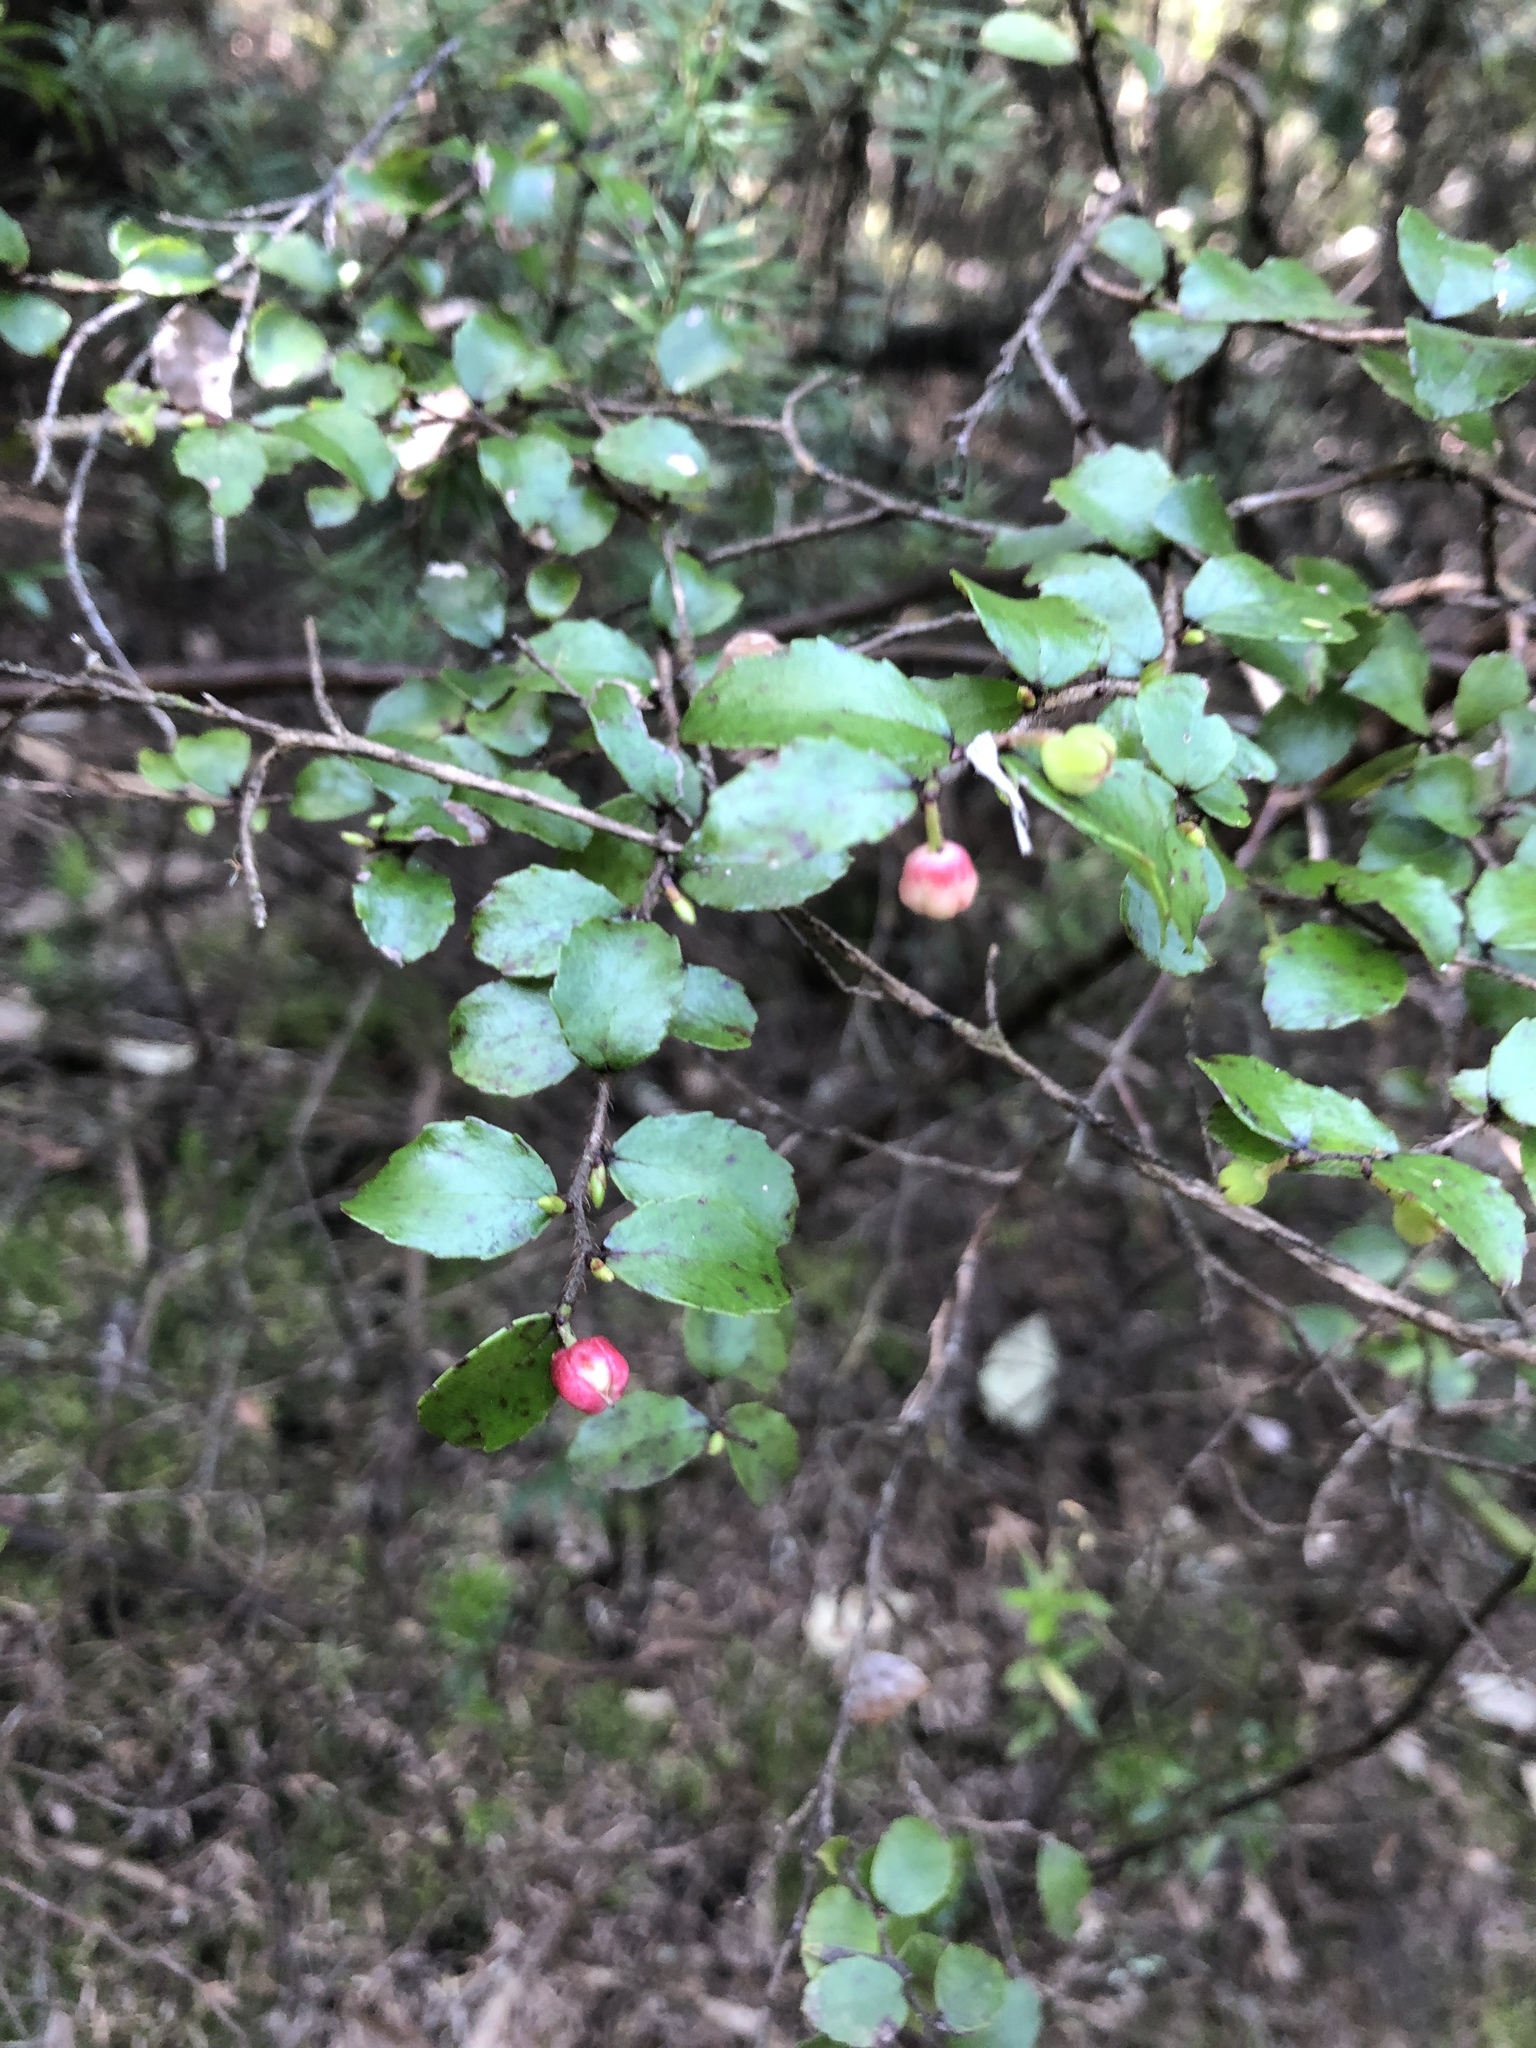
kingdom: Plantae
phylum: Tracheophyta
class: Magnoliopsida
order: Ericales
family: Ericaceae
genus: Gaultheria
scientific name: Gaultheria antipoda
